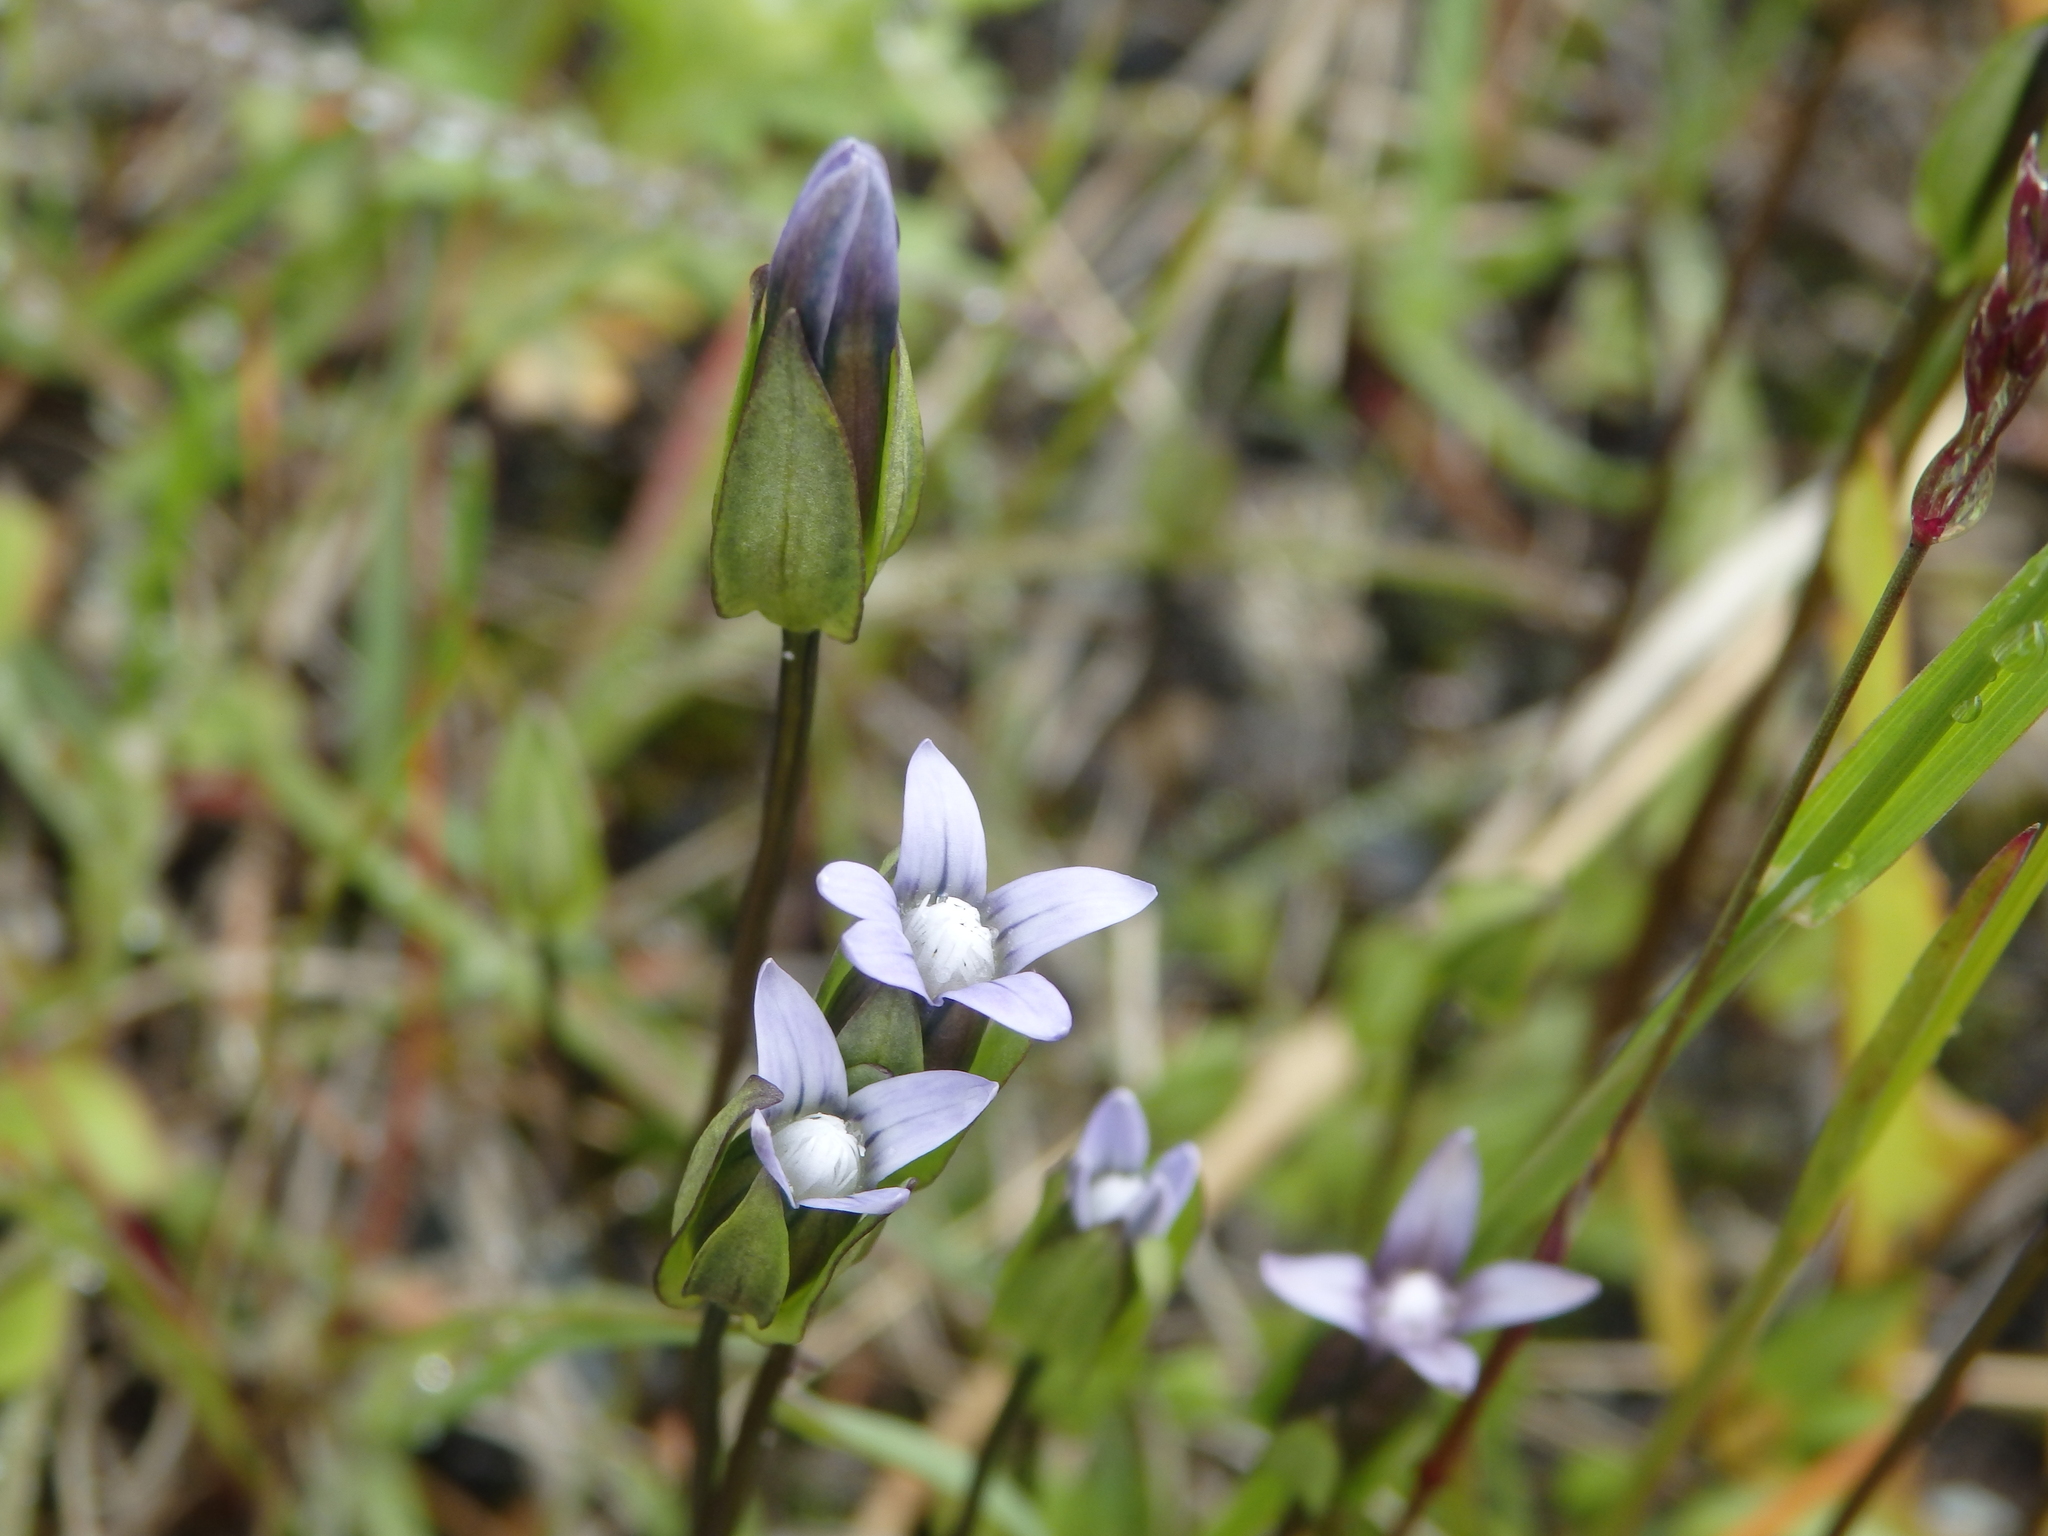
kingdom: Plantae
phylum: Tracheophyta
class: Magnoliopsida
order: Gentianales
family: Gentianaceae
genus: Comastoma
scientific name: Comastoma tenellum
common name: Dane's dwarf gentian
